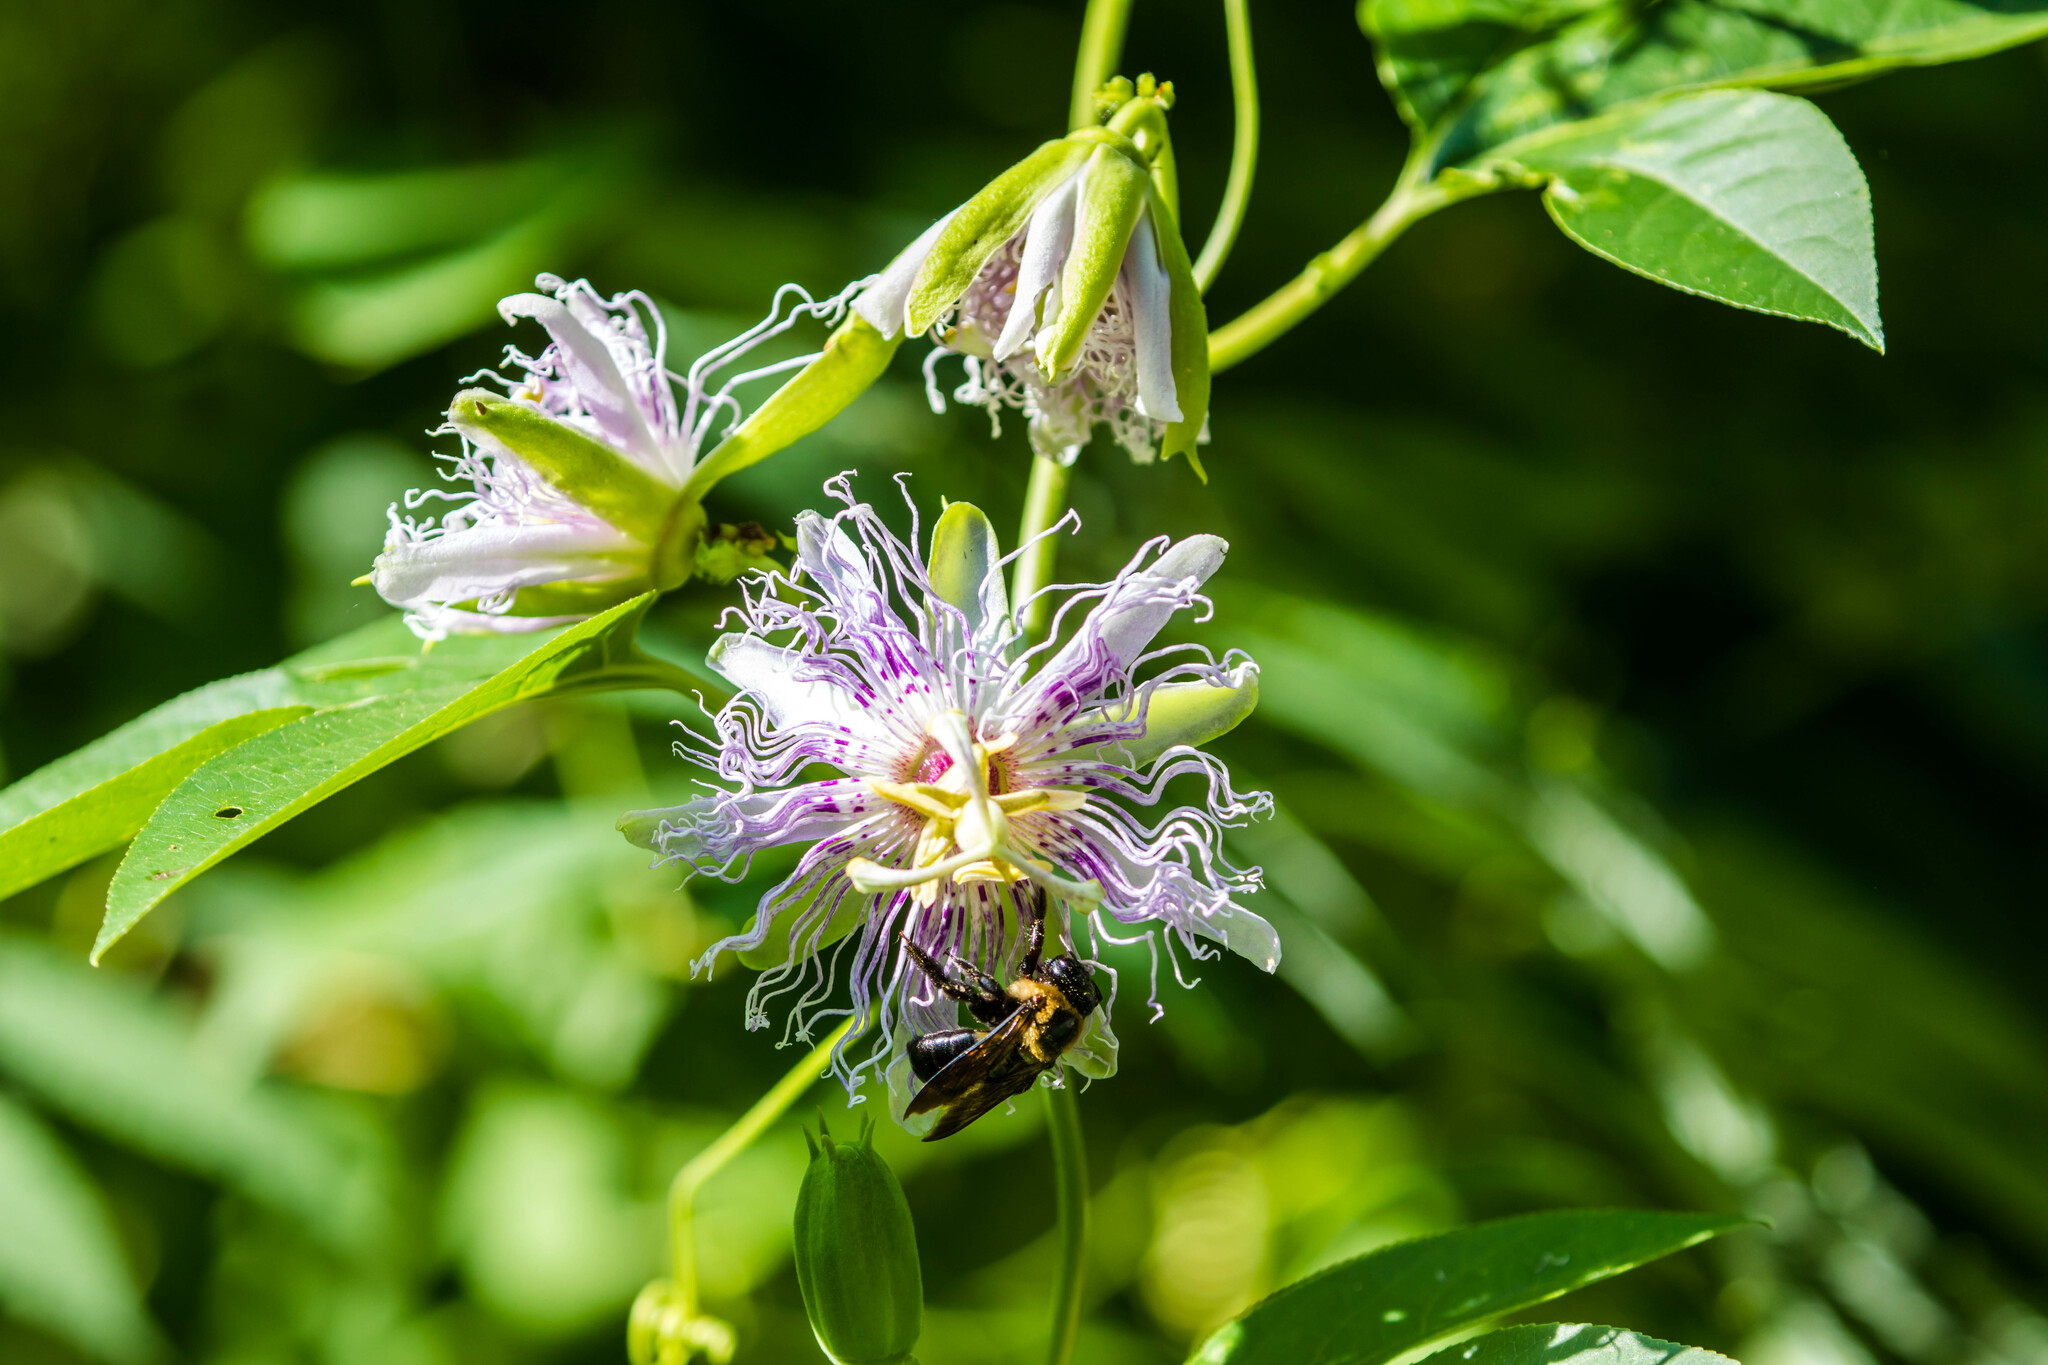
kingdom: Plantae
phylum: Tracheophyta
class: Magnoliopsida
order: Malpighiales
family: Passifloraceae
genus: Passiflora
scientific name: Passiflora incarnata
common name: Apricot-vine
